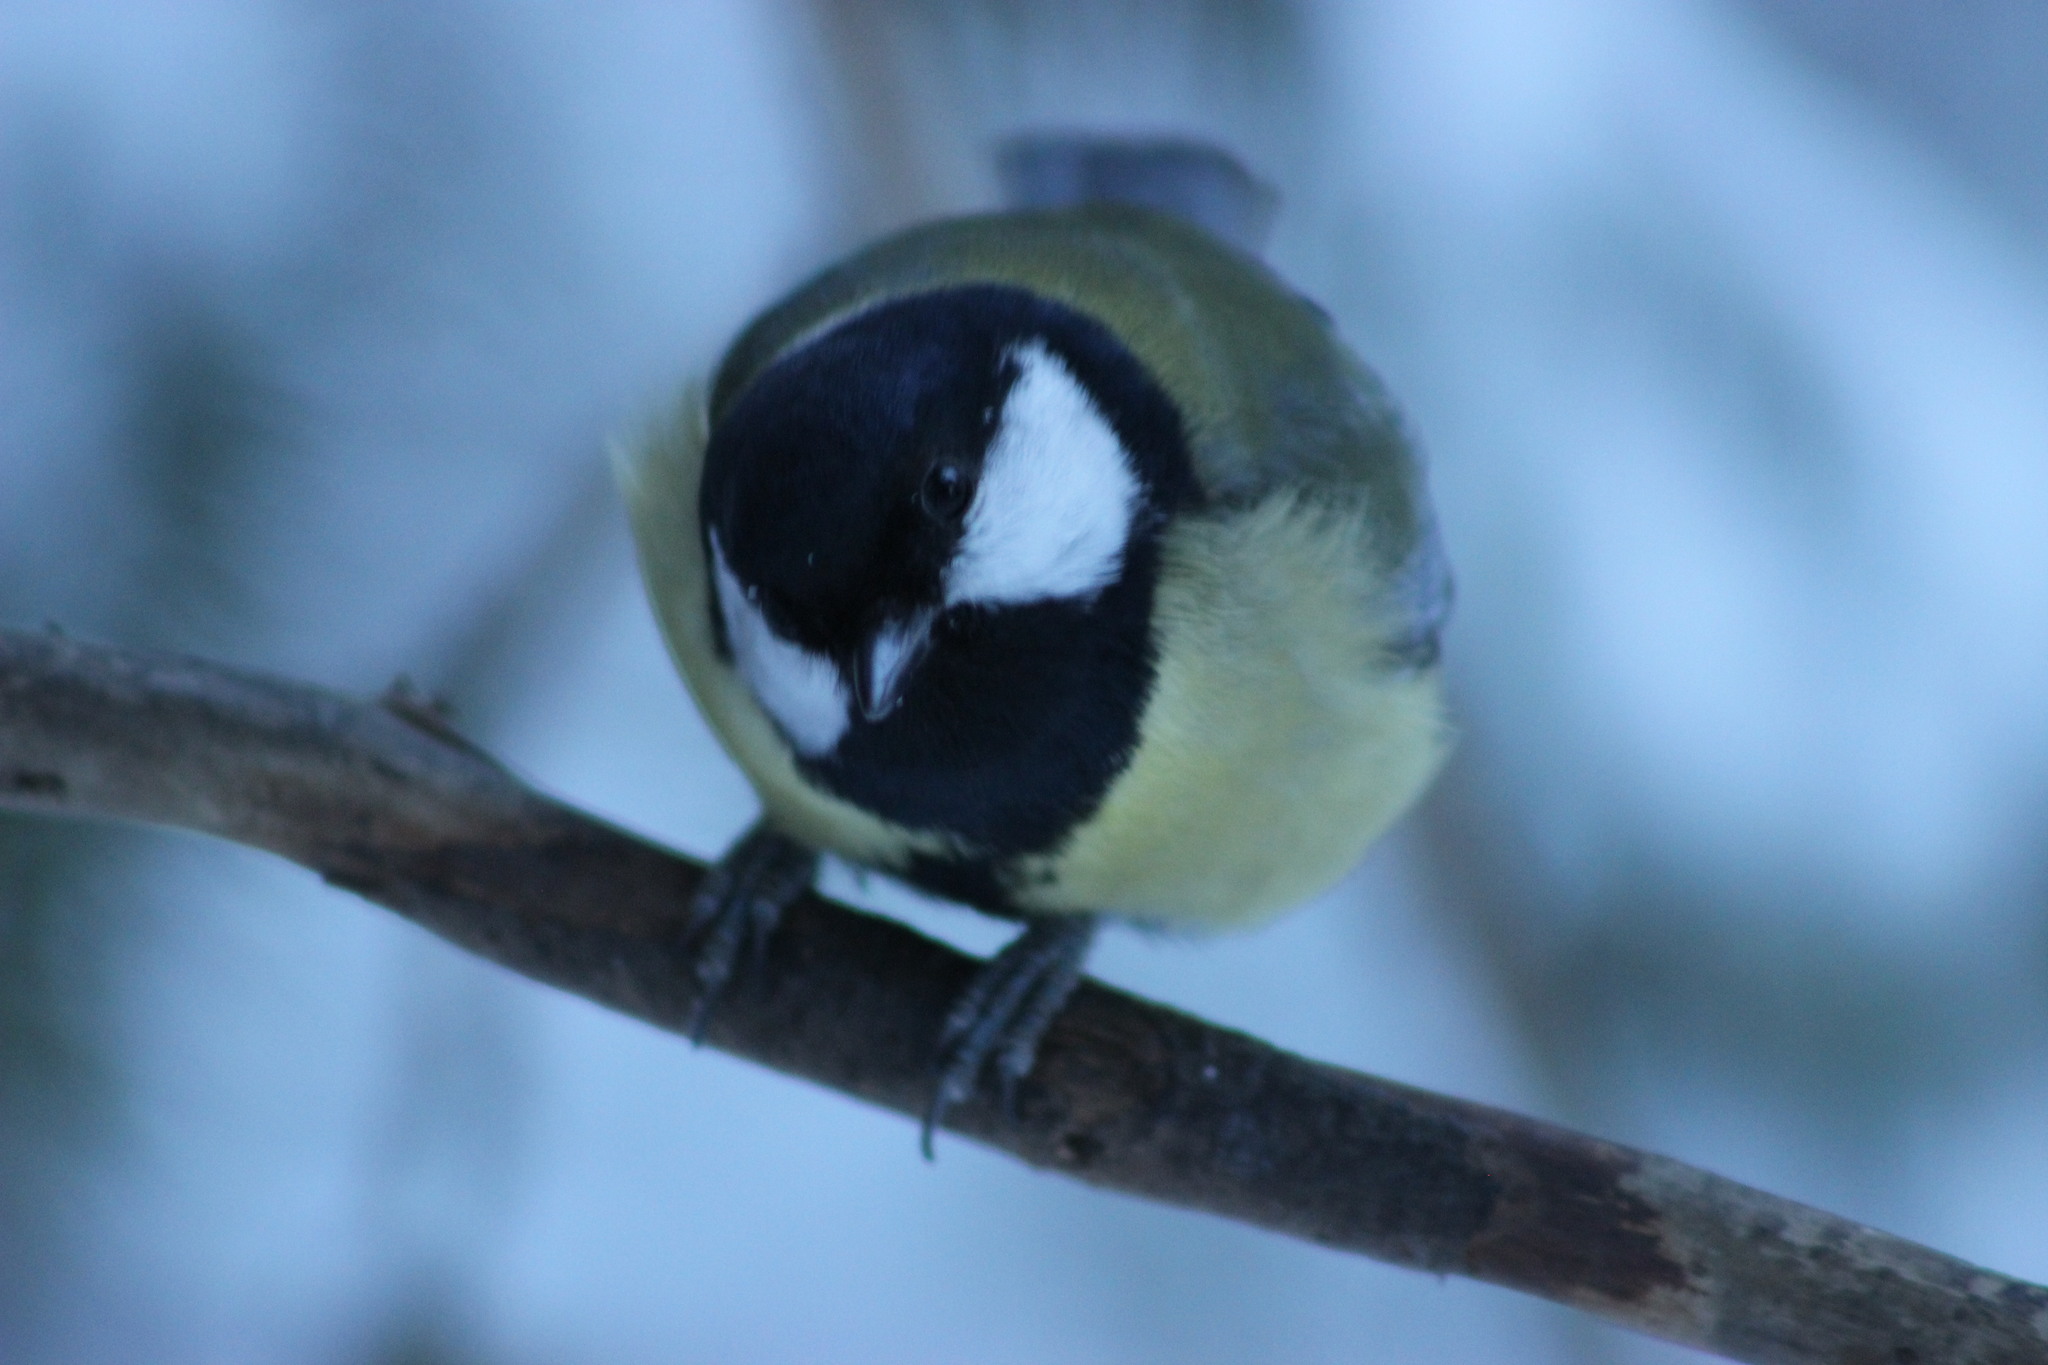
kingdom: Animalia
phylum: Chordata
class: Aves
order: Passeriformes
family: Paridae
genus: Parus
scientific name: Parus major
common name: Great tit
